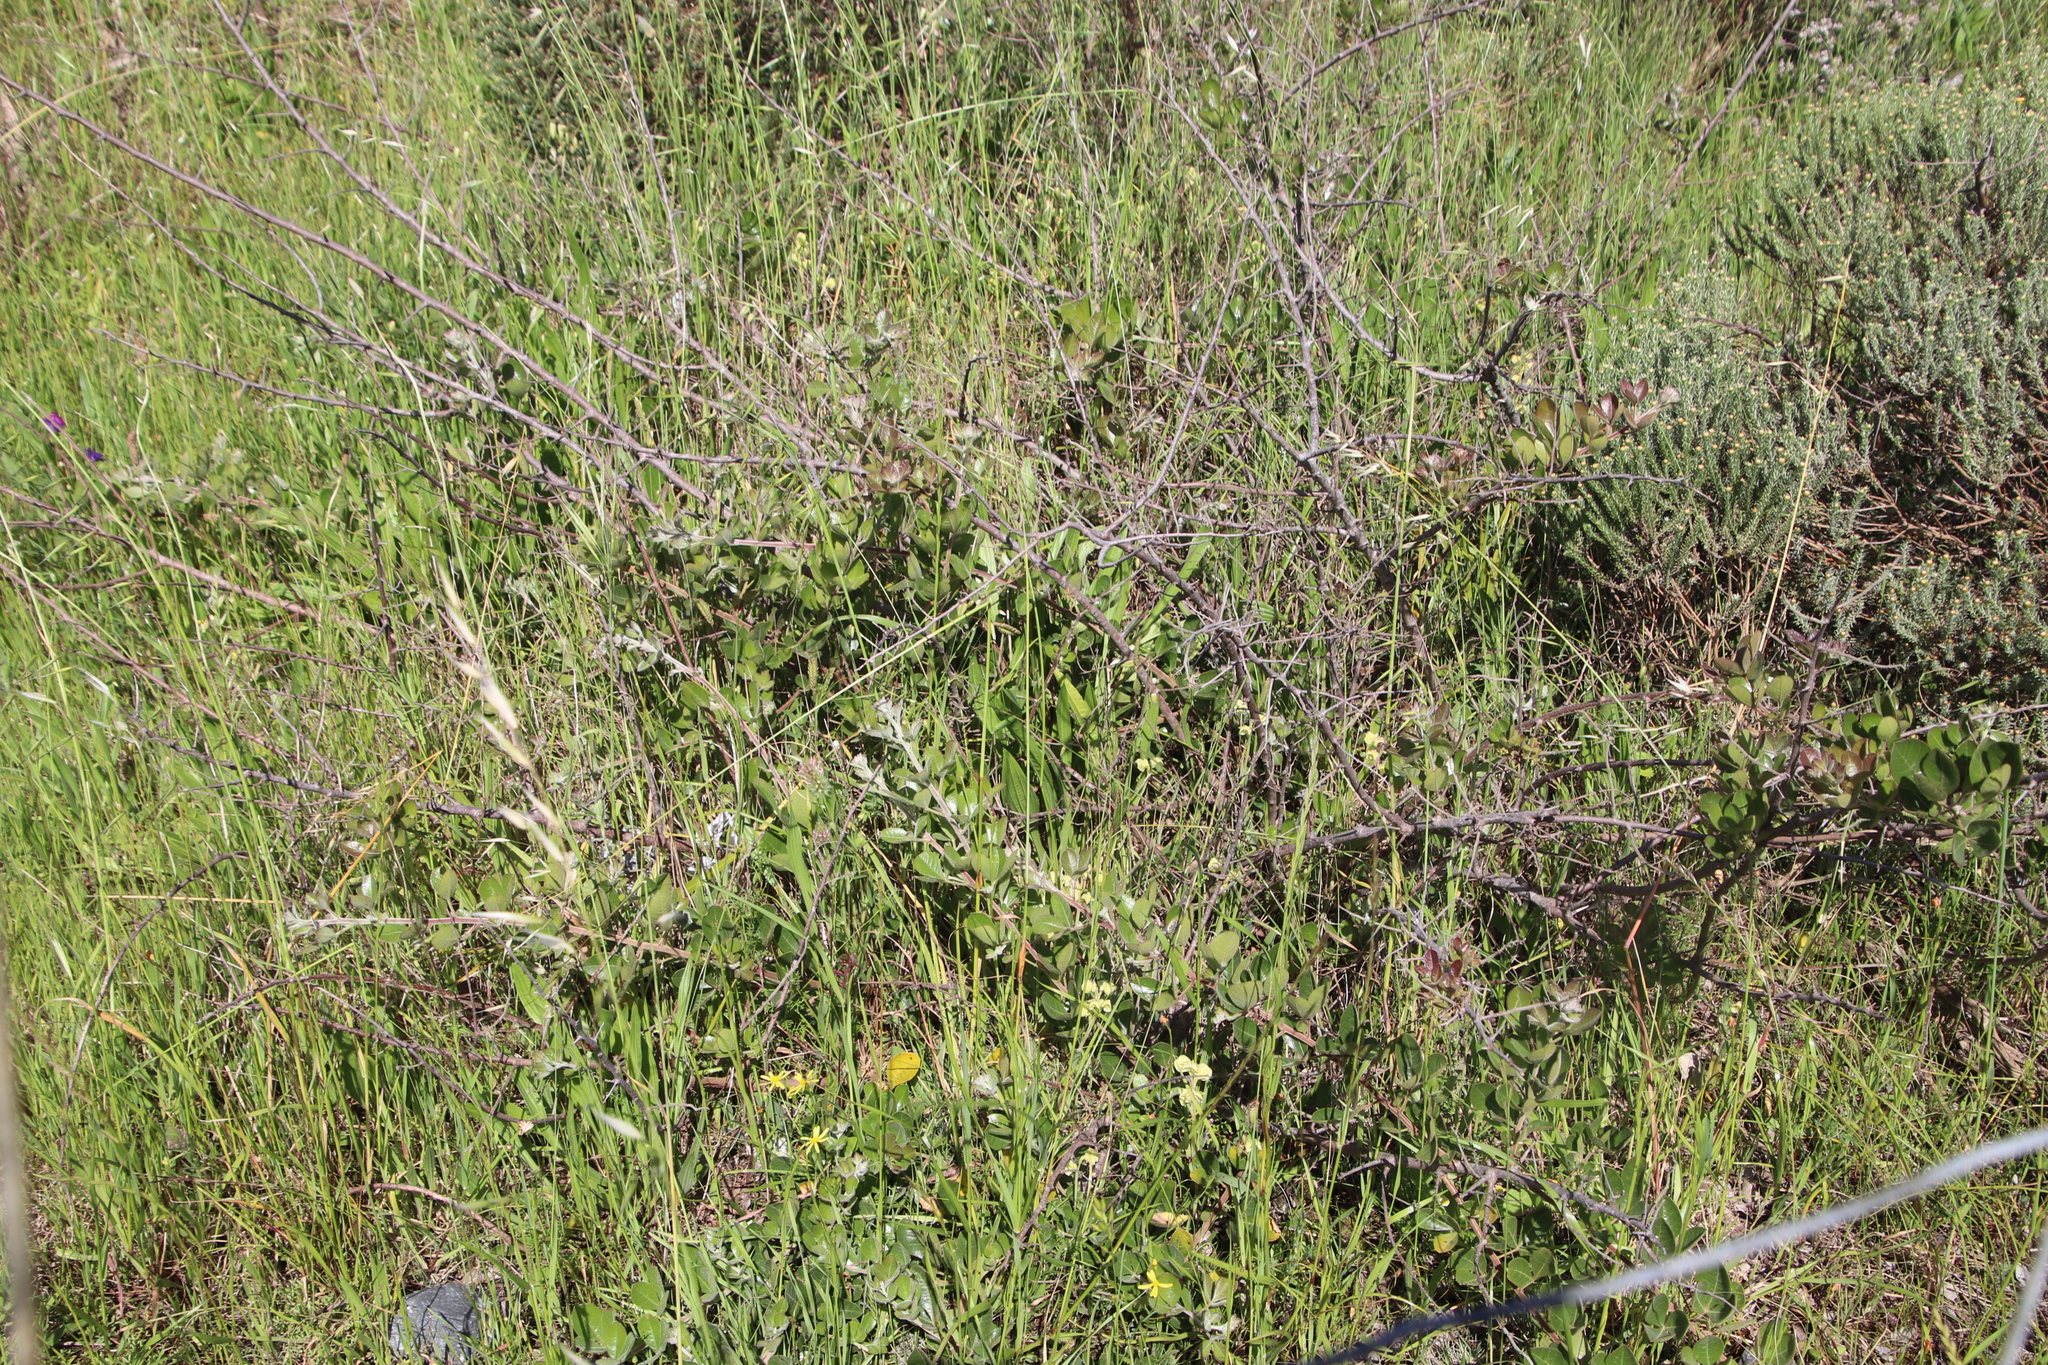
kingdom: Plantae
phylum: Tracheophyta
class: Magnoliopsida
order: Sapindales
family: Anacardiaceae
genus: Searsia
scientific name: Searsia laevigata
